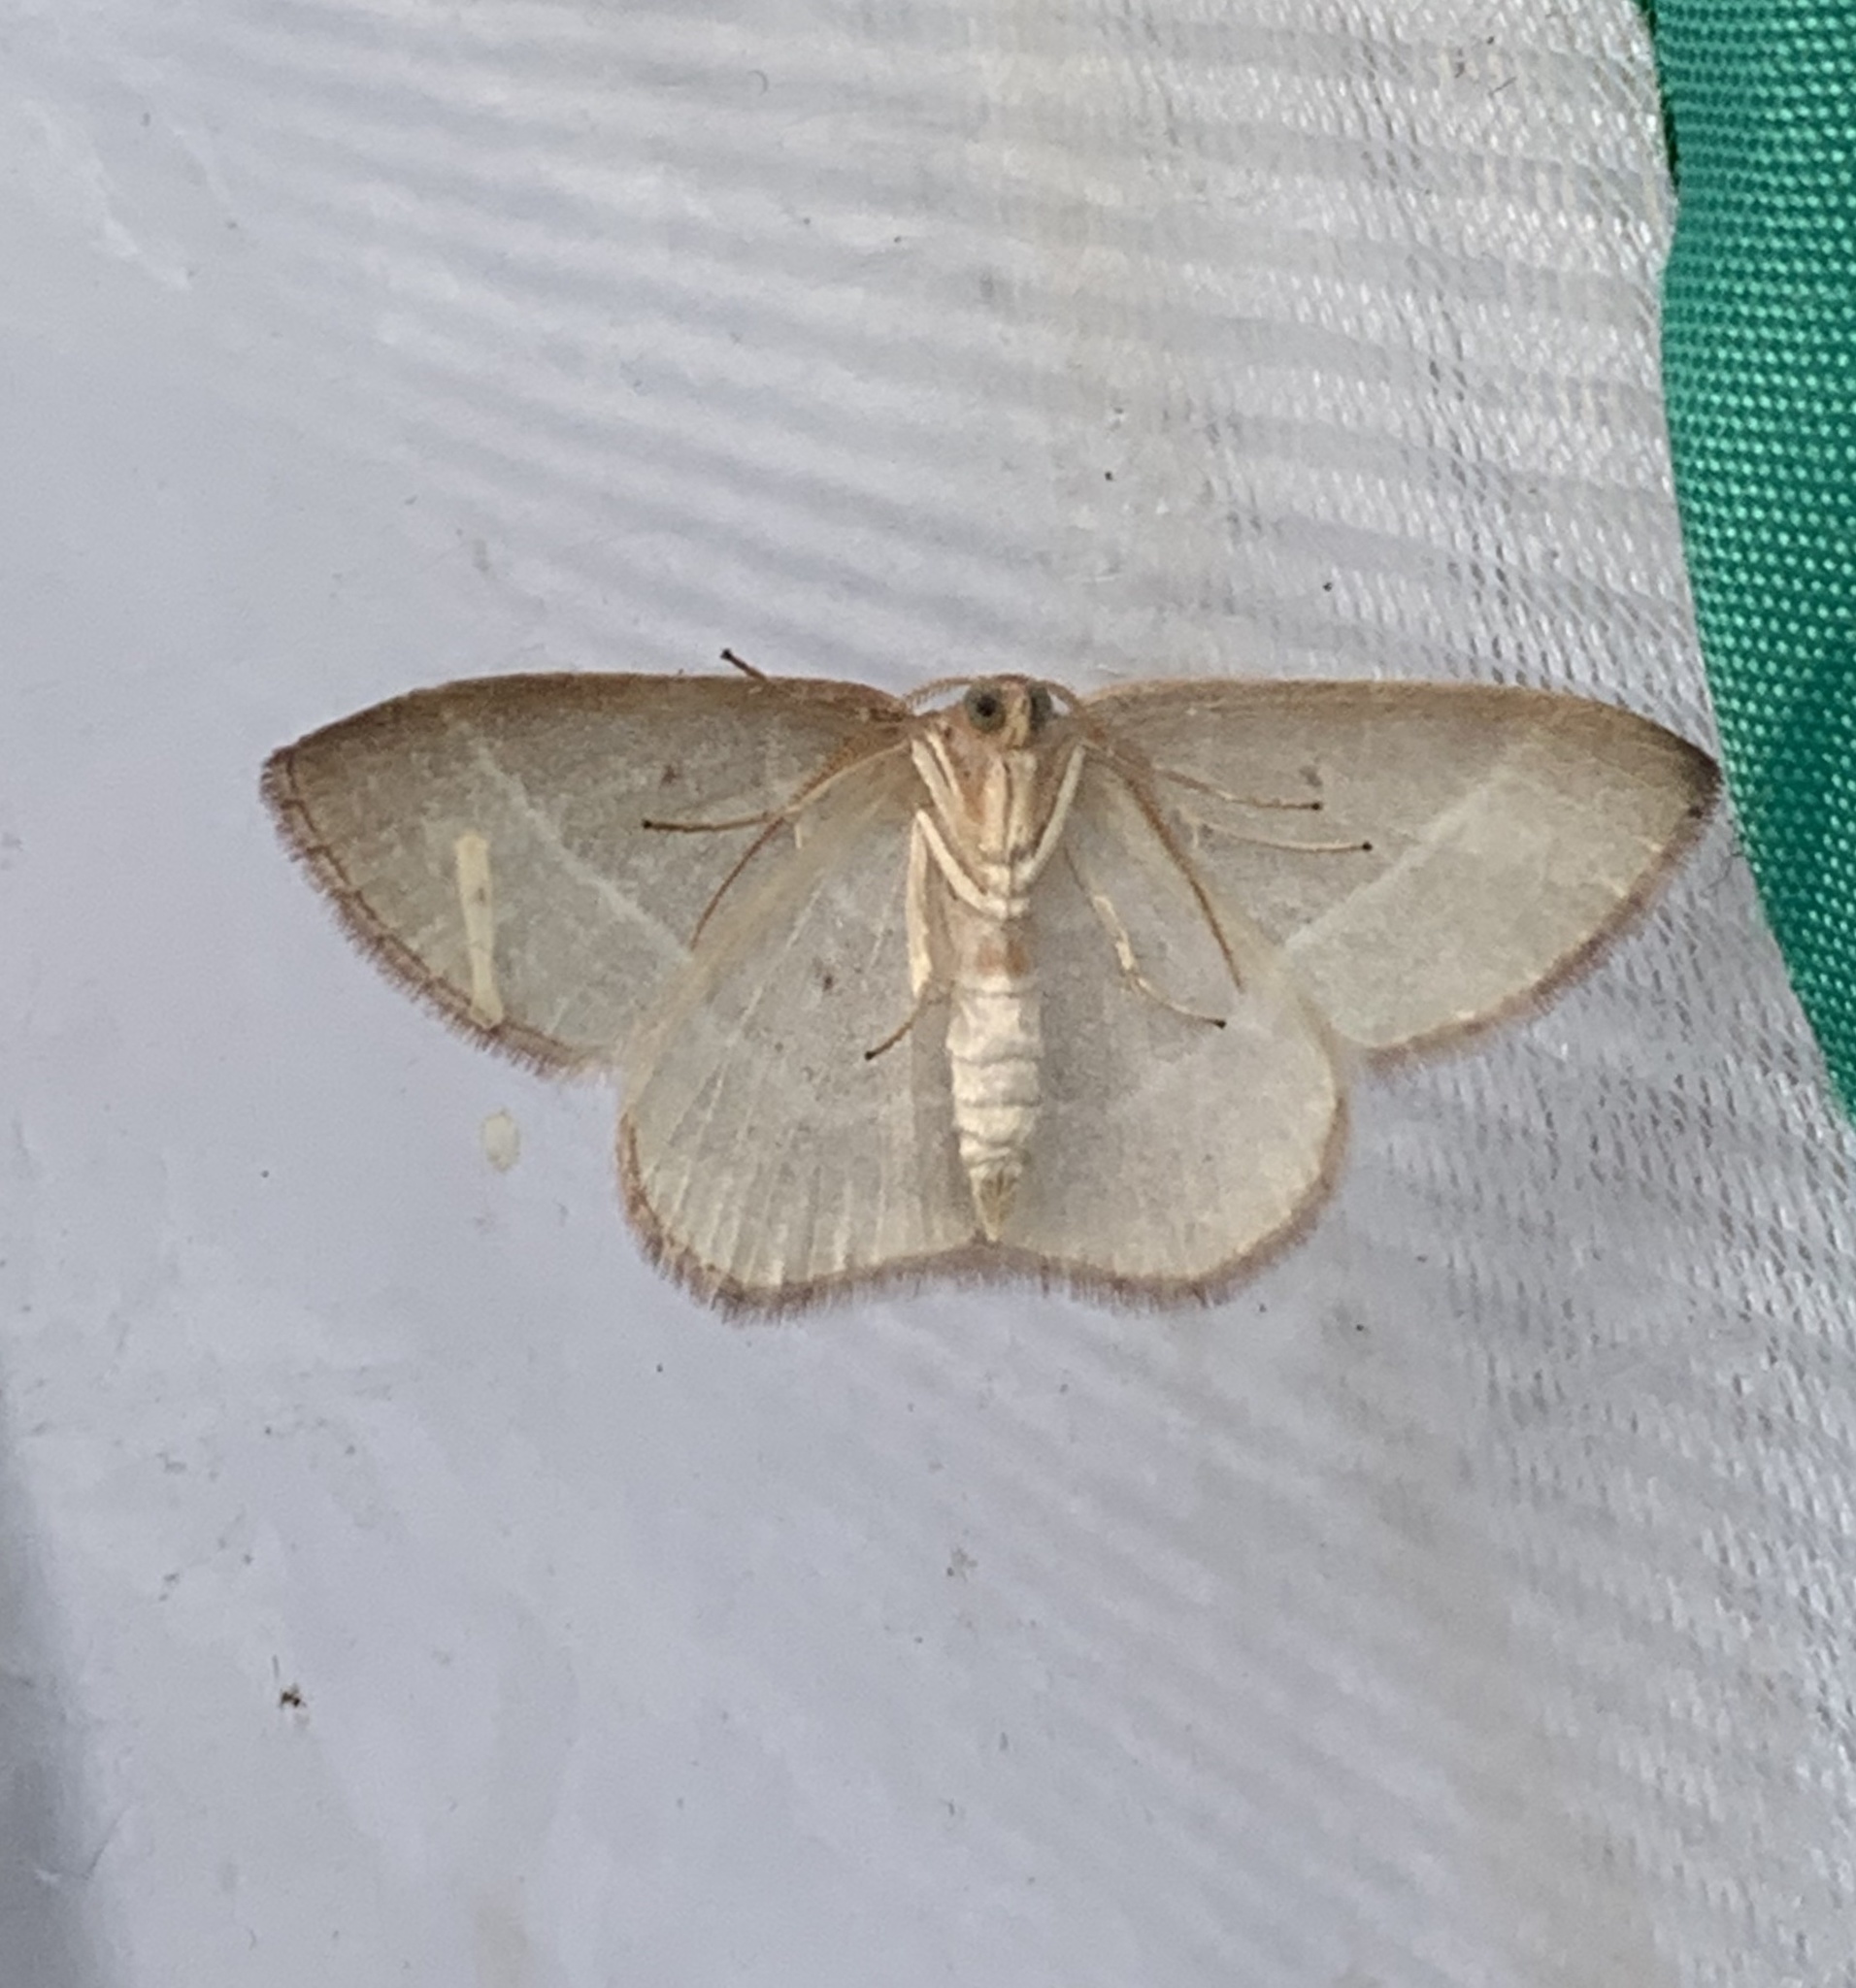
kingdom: Animalia
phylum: Arthropoda
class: Insecta
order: Lepidoptera
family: Geometridae
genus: Nemoria
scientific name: Nemoria bistriaria
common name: Red-fringed emerald
